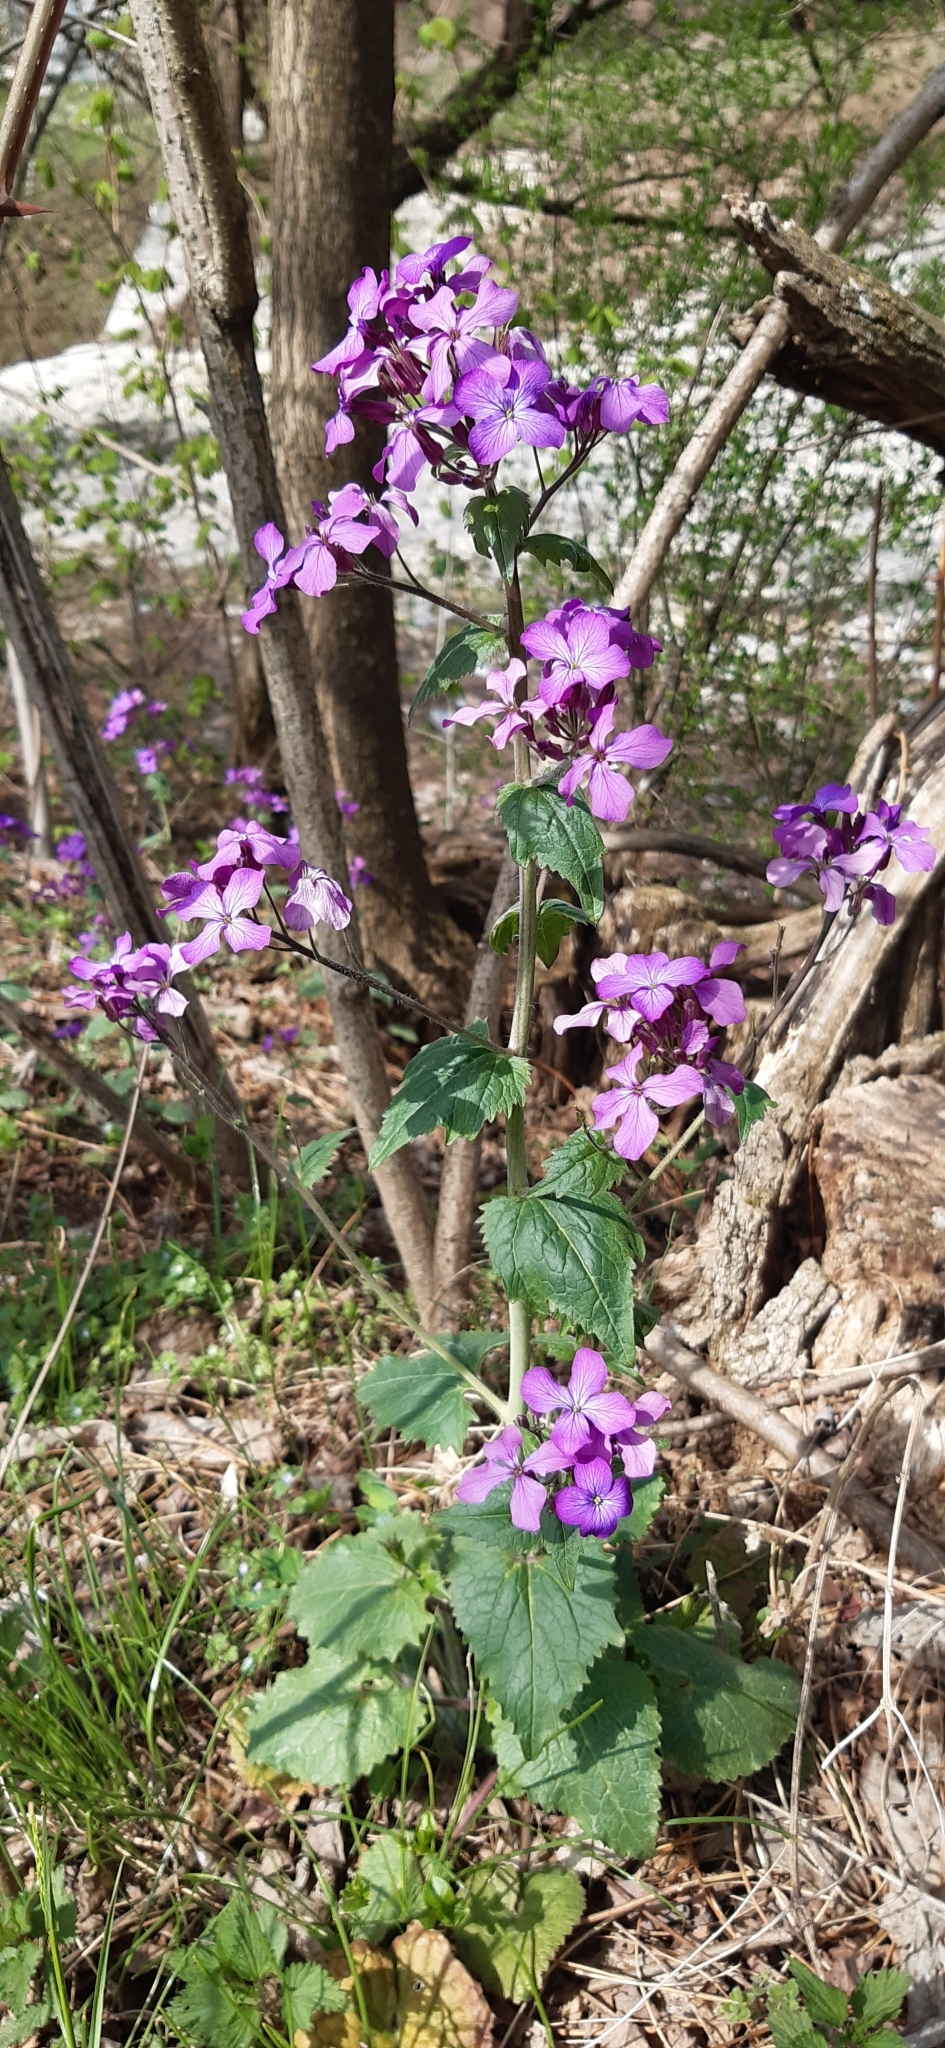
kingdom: Plantae
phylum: Tracheophyta
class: Magnoliopsida
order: Brassicales
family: Brassicaceae
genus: Lunaria
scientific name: Lunaria annua
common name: Honesty
